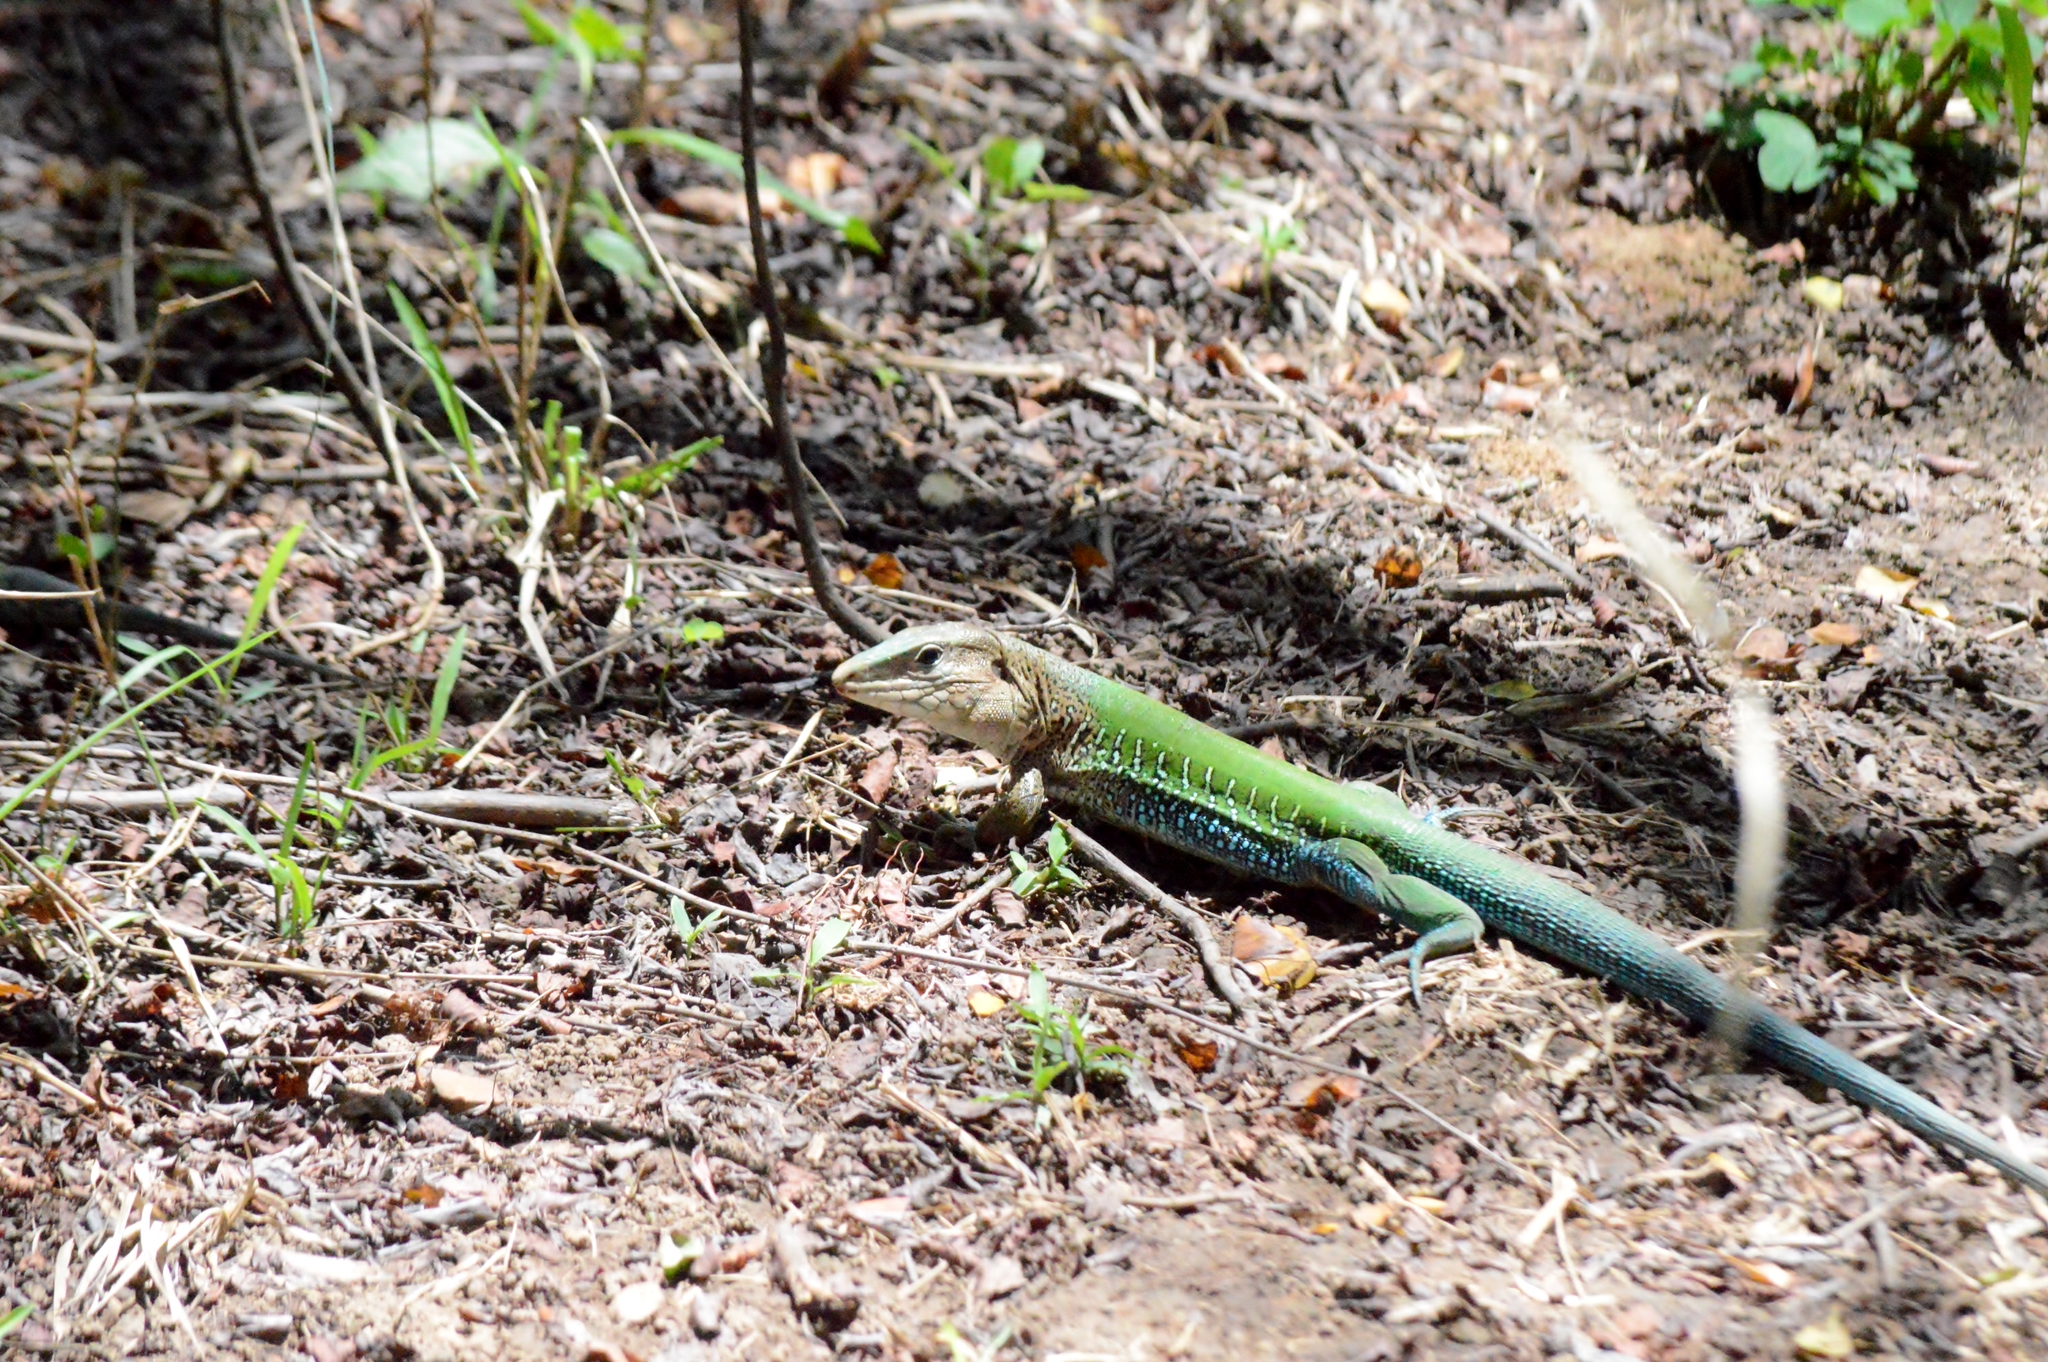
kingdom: Animalia
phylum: Chordata
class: Squamata
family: Teiidae
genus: Ameiva
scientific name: Ameiva ameiva
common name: Giant ameiva
